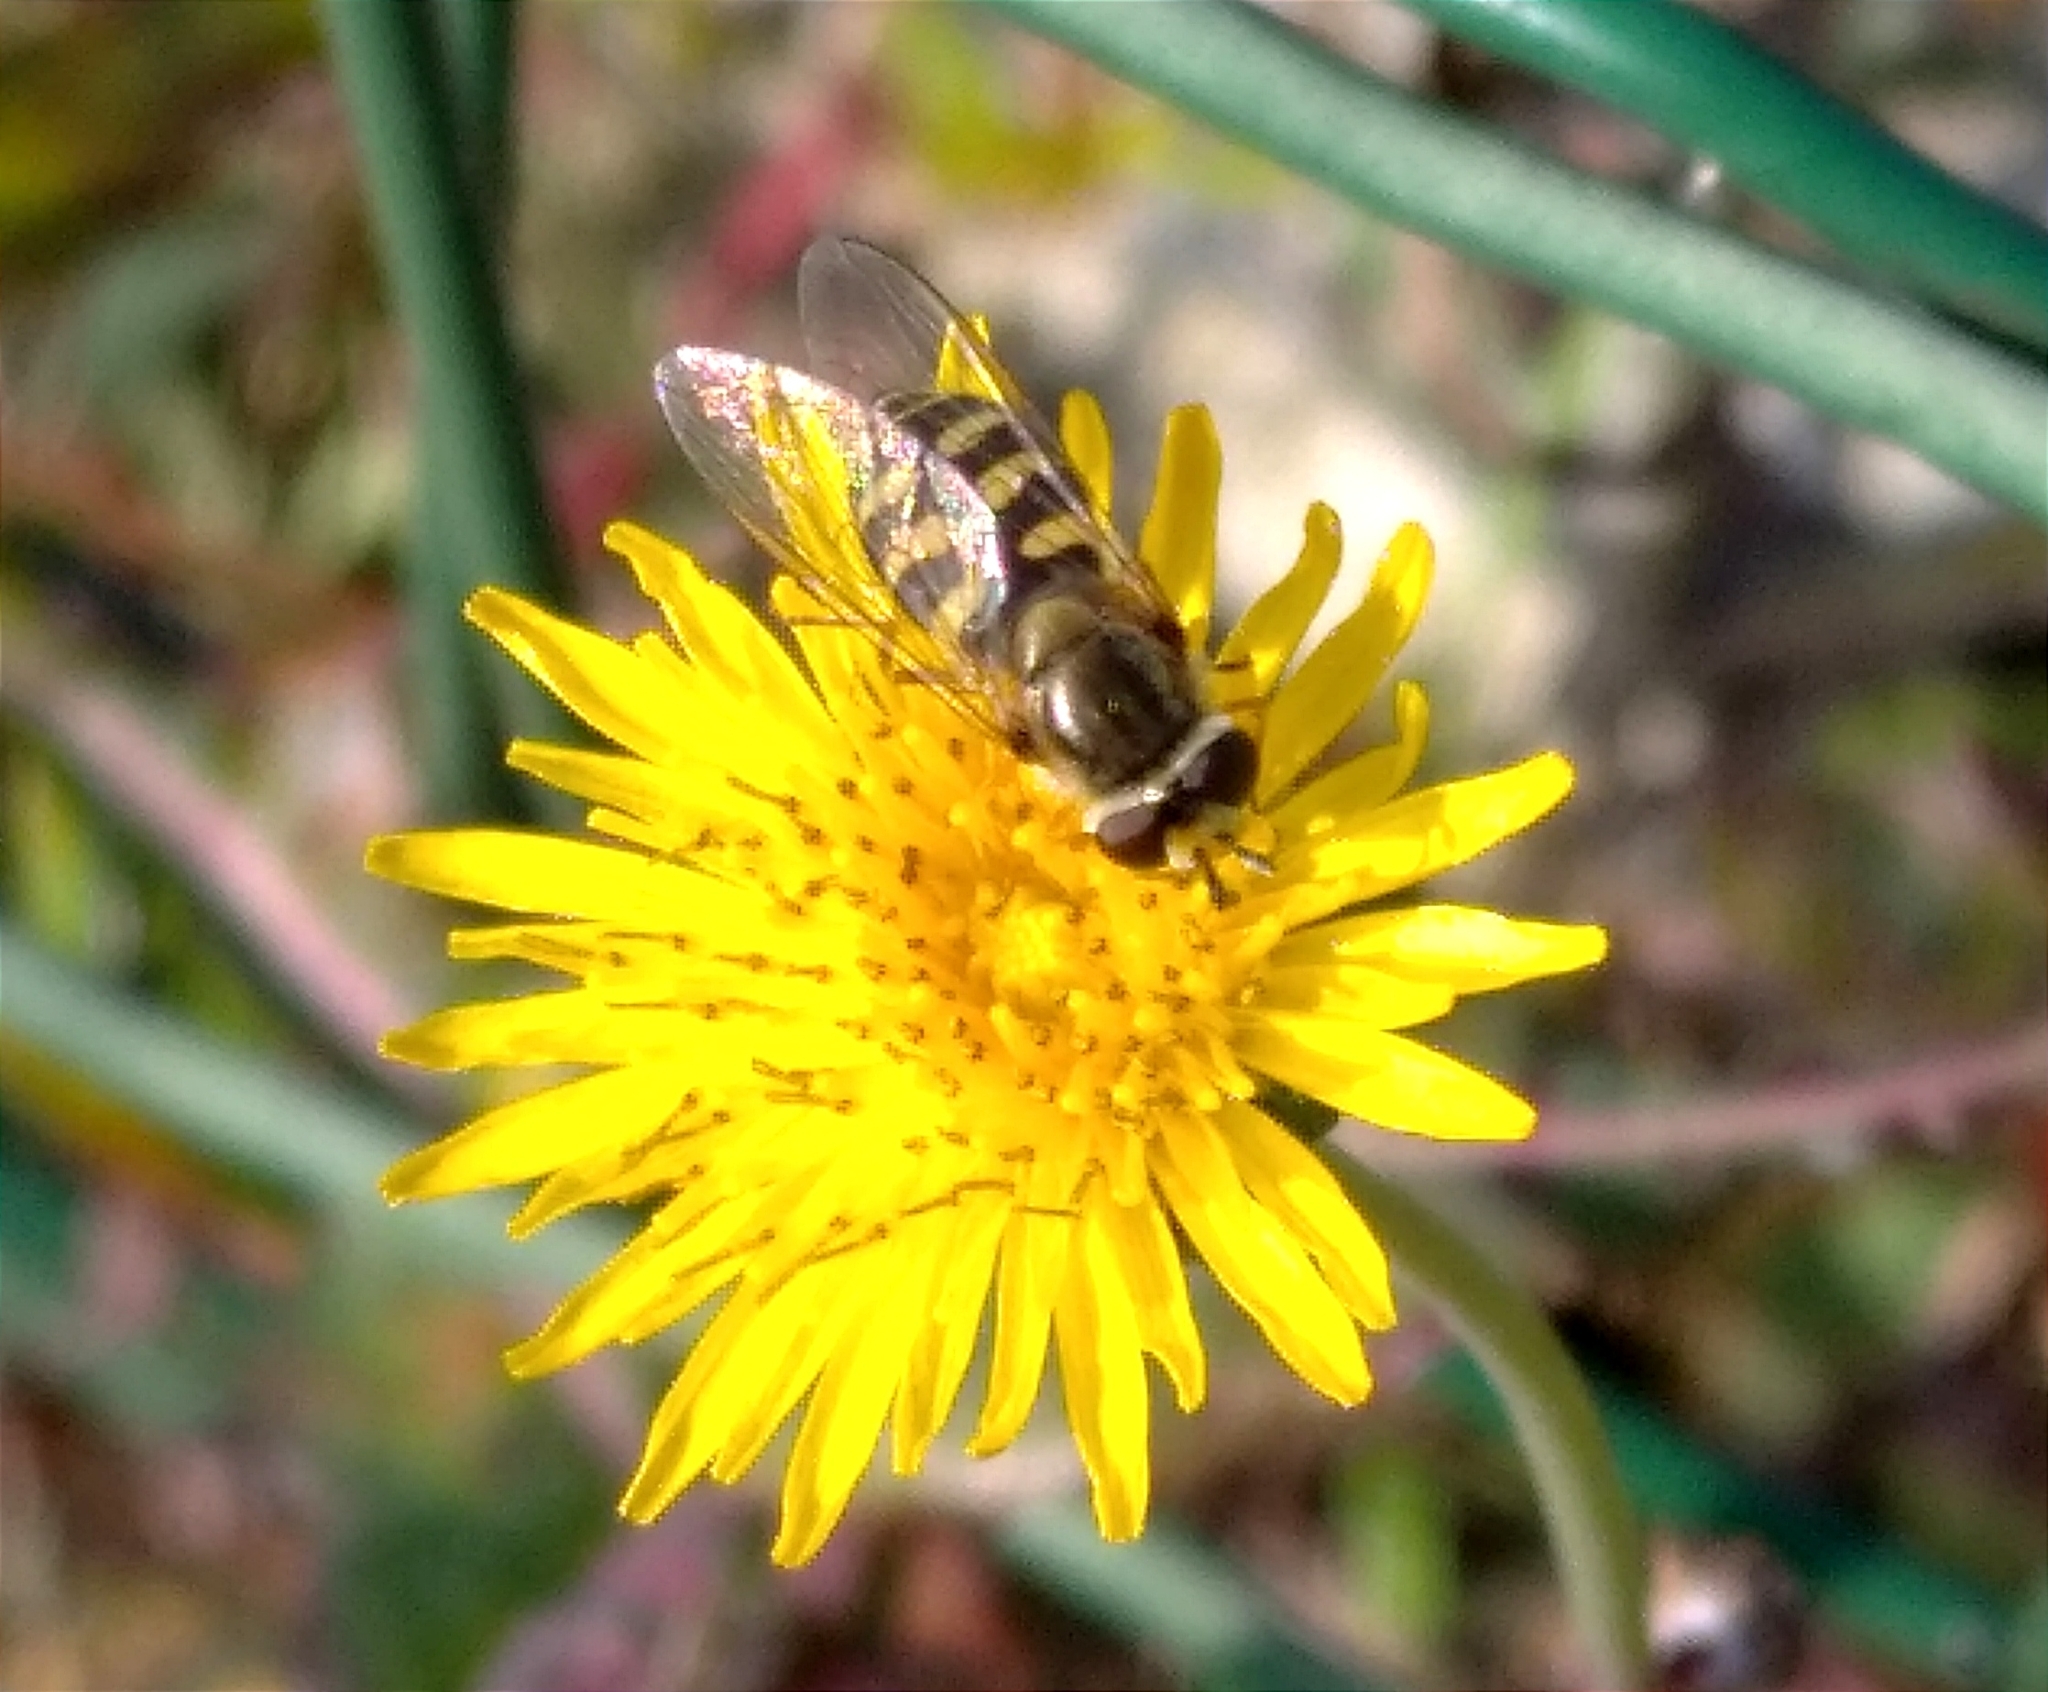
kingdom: Animalia
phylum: Arthropoda
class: Insecta
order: Diptera
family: Syrphidae
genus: Eupeodes
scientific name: Eupeodes corollae
